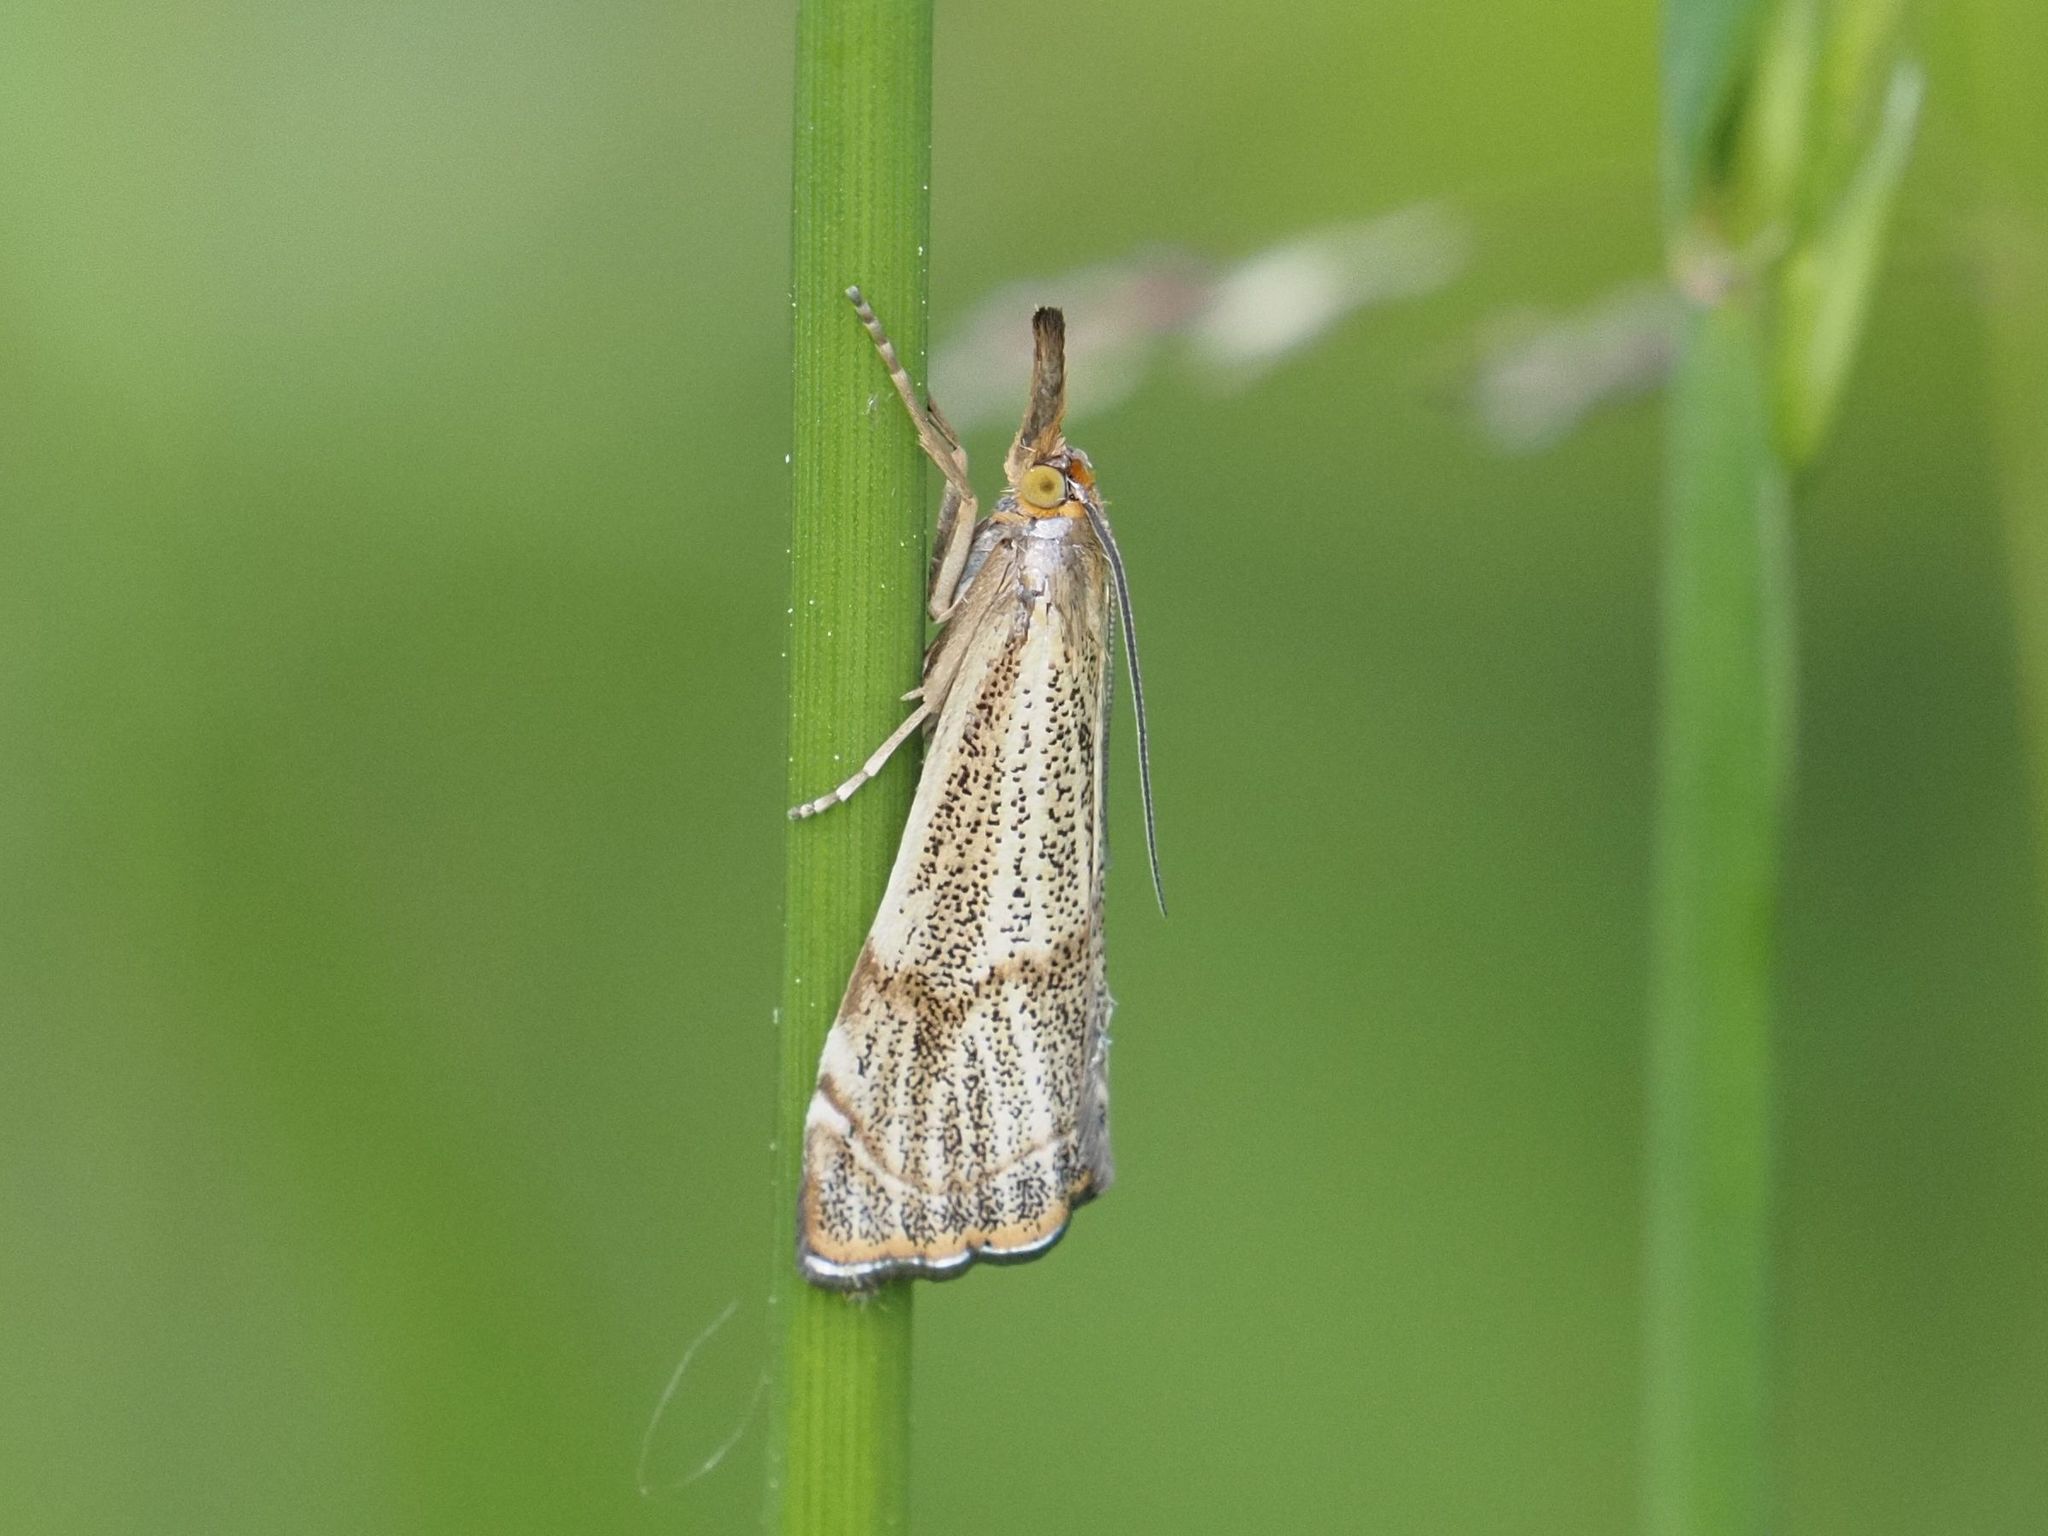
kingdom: Animalia
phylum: Arthropoda
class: Insecta
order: Lepidoptera
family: Crambidae
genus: Thisanotia
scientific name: Thisanotia chrysonuchella
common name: Powdered grass-veneer
